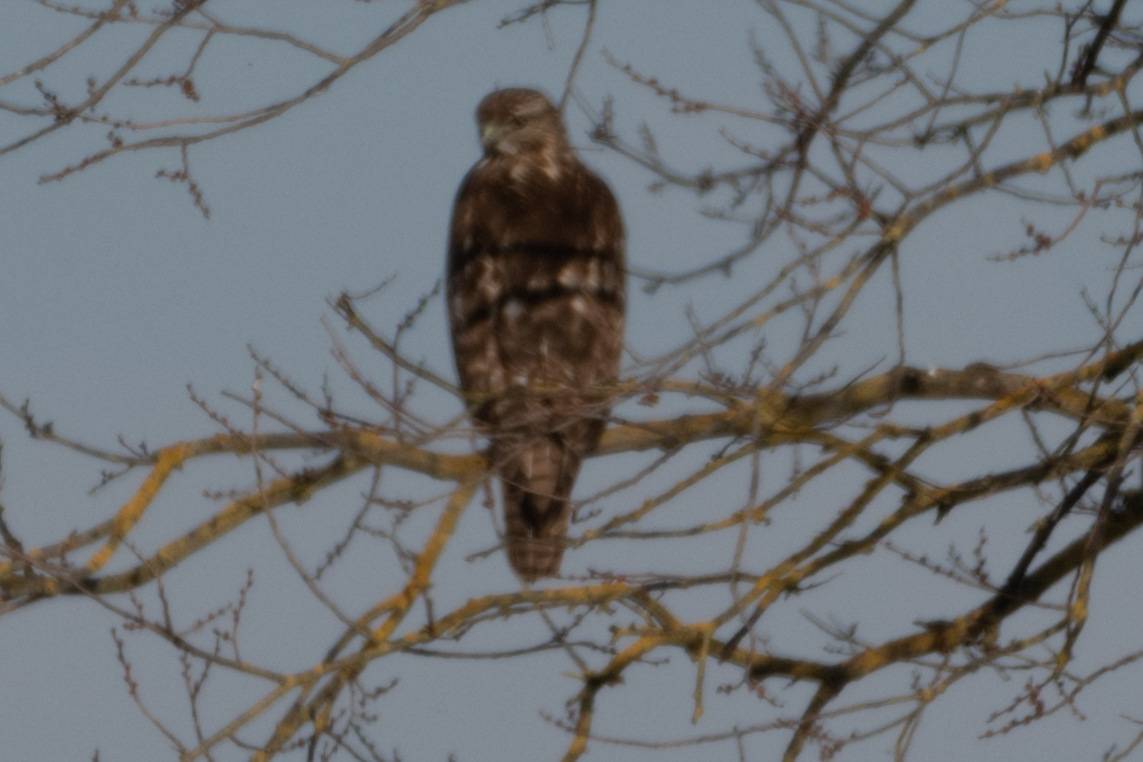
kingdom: Animalia
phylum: Chordata
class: Aves
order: Accipitriformes
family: Accipitridae
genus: Buteo
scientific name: Buteo jamaicensis
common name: Red-tailed hawk
